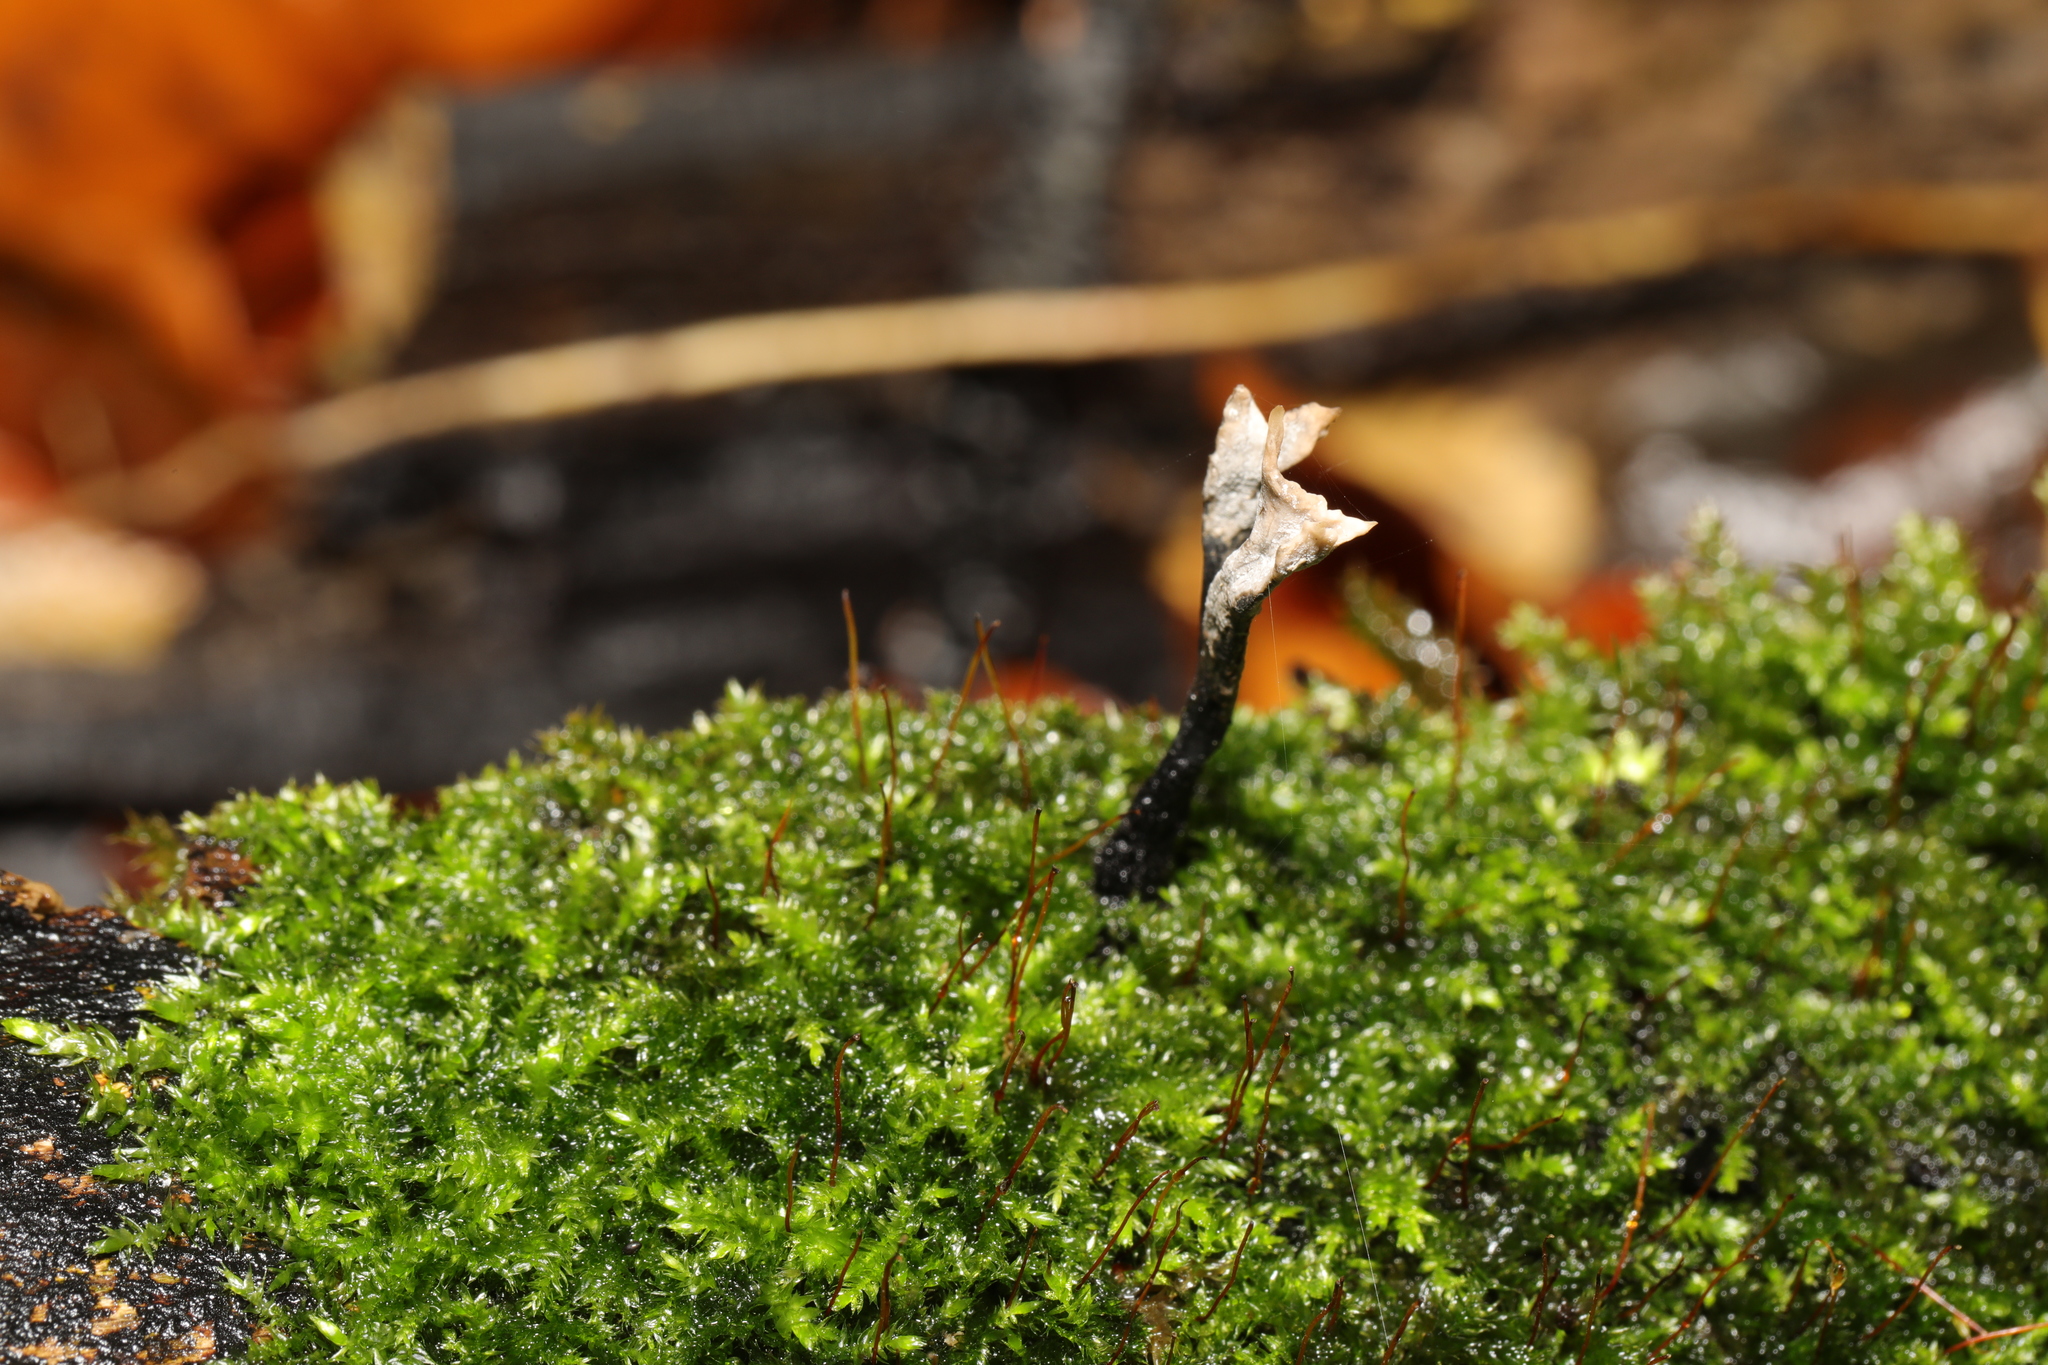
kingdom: Fungi
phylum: Ascomycota
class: Sordariomycetes
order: Xylariales
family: Xylariaceae
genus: Xylaria
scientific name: Xylaria hypoxylon
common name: Candle-snuff fungus
